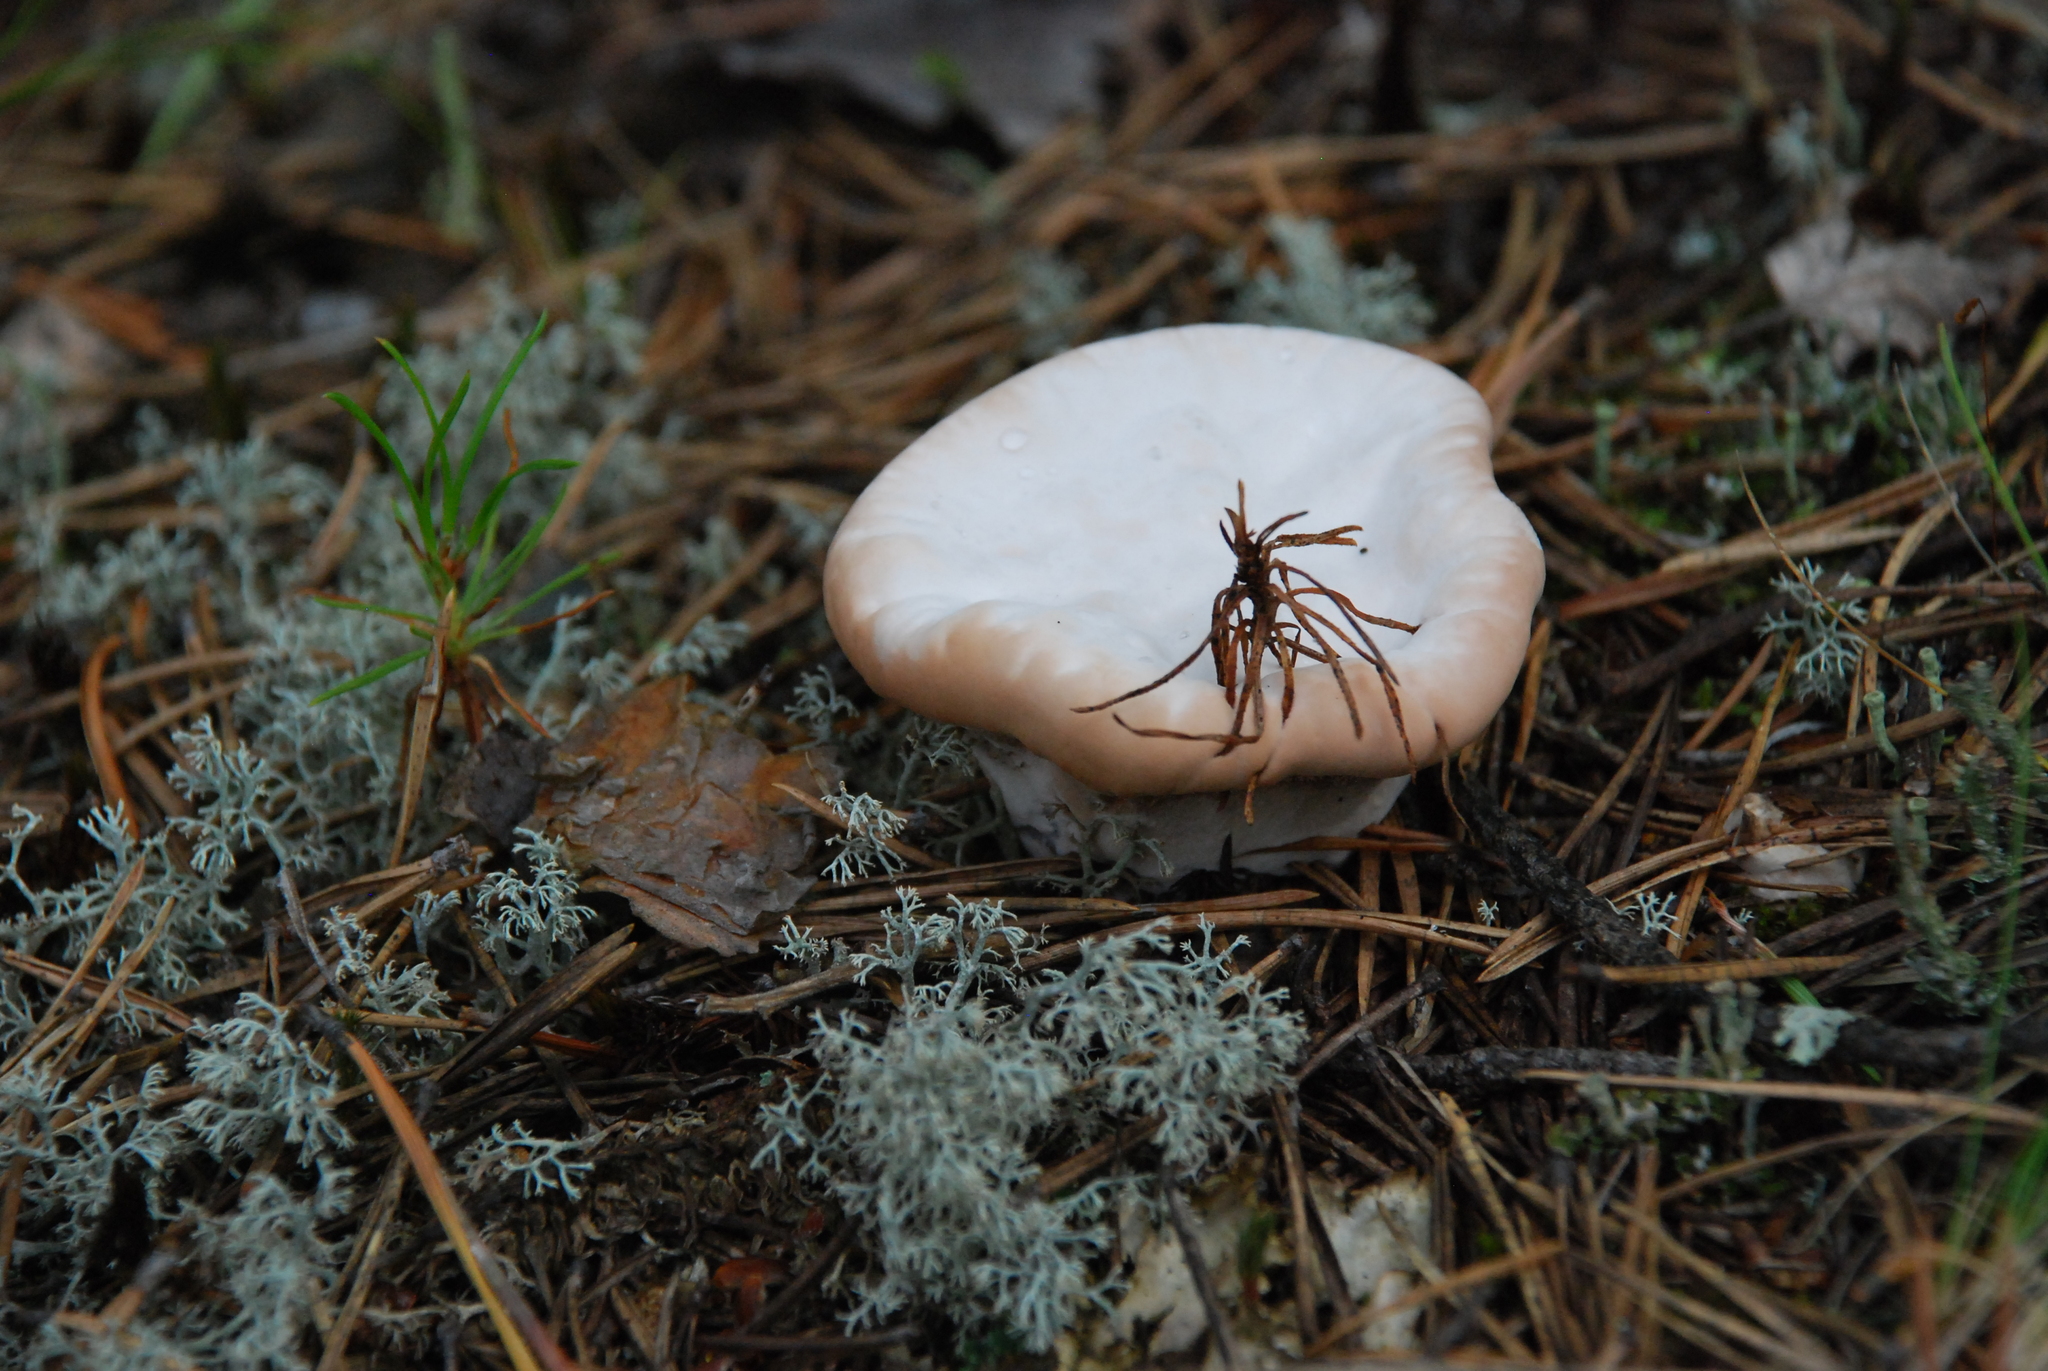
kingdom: Fungi
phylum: Basidiomycota
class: Agaricomycetes
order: Thelephorales
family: Bankeraceae
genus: Hydnellum
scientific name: Hydnellum ferrugineum
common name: Mealy tooth
